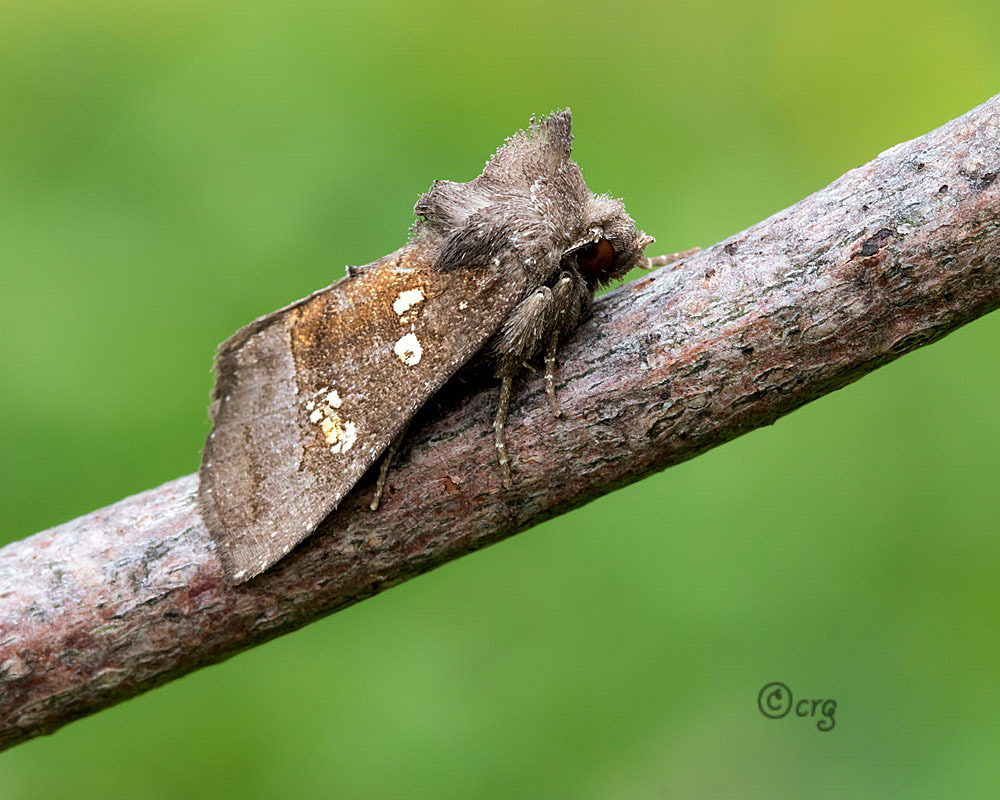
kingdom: Animalia
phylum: Arthropoda
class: Insecta
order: Lepidoptera
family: Noctuidae
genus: Papaipema
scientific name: Papaipema nelita
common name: Coneflower borer moth
